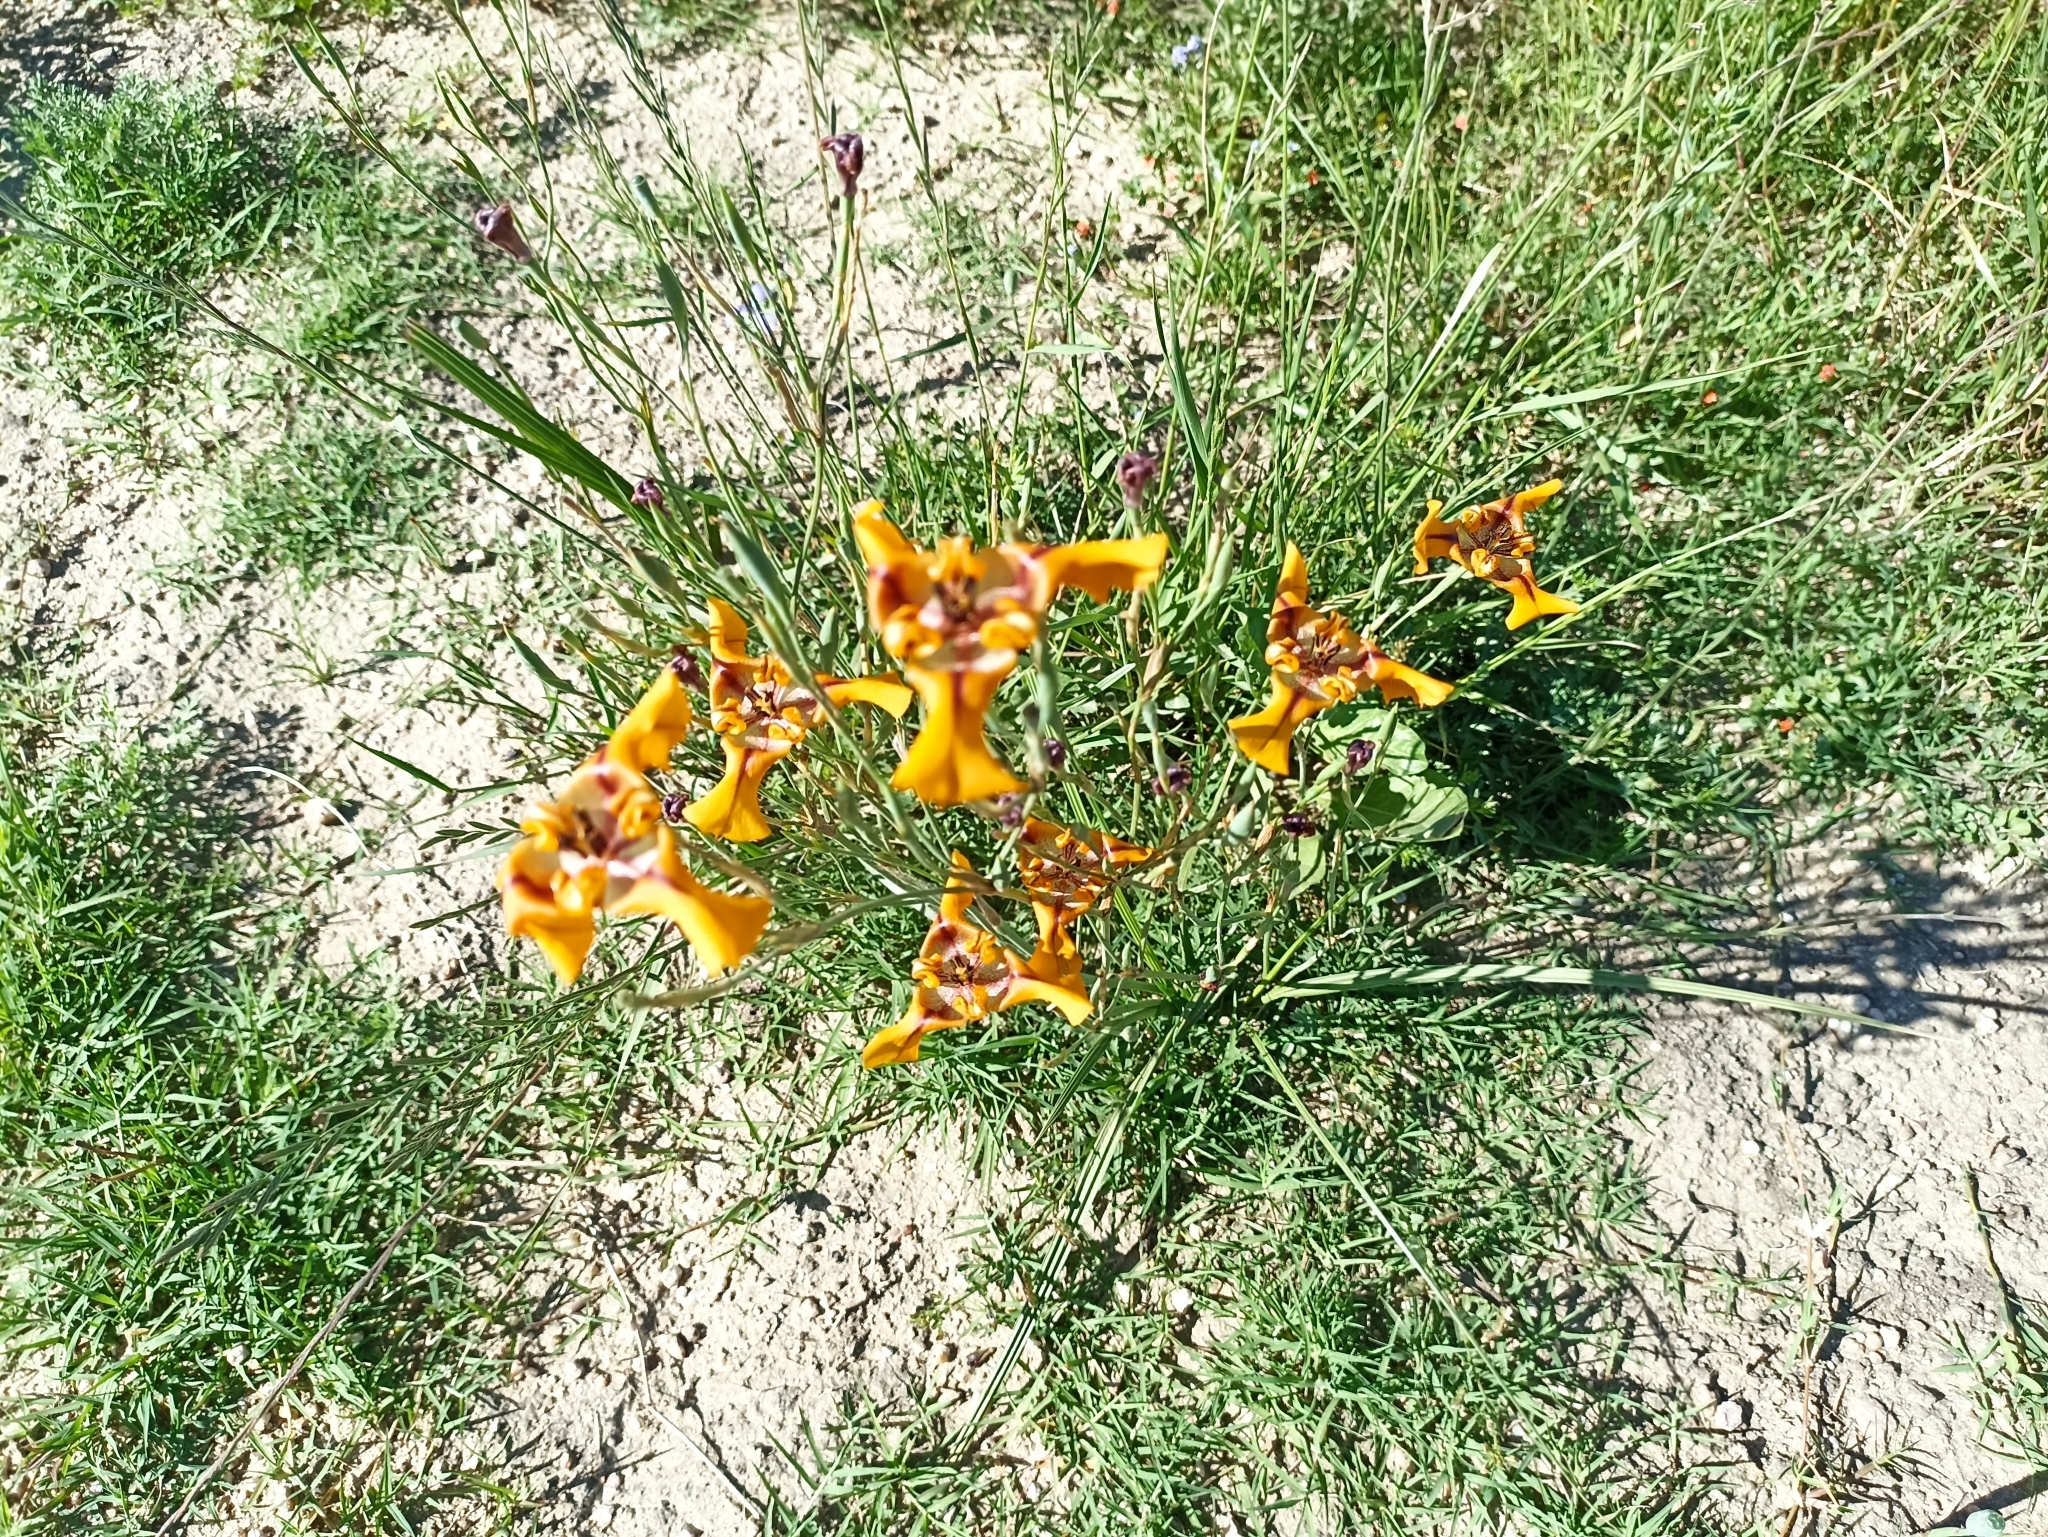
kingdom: Plantae
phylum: Tracheophyta
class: Liliopsida
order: Asparagales
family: Iridaceae
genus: Cypella
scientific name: Cypella herbertii
